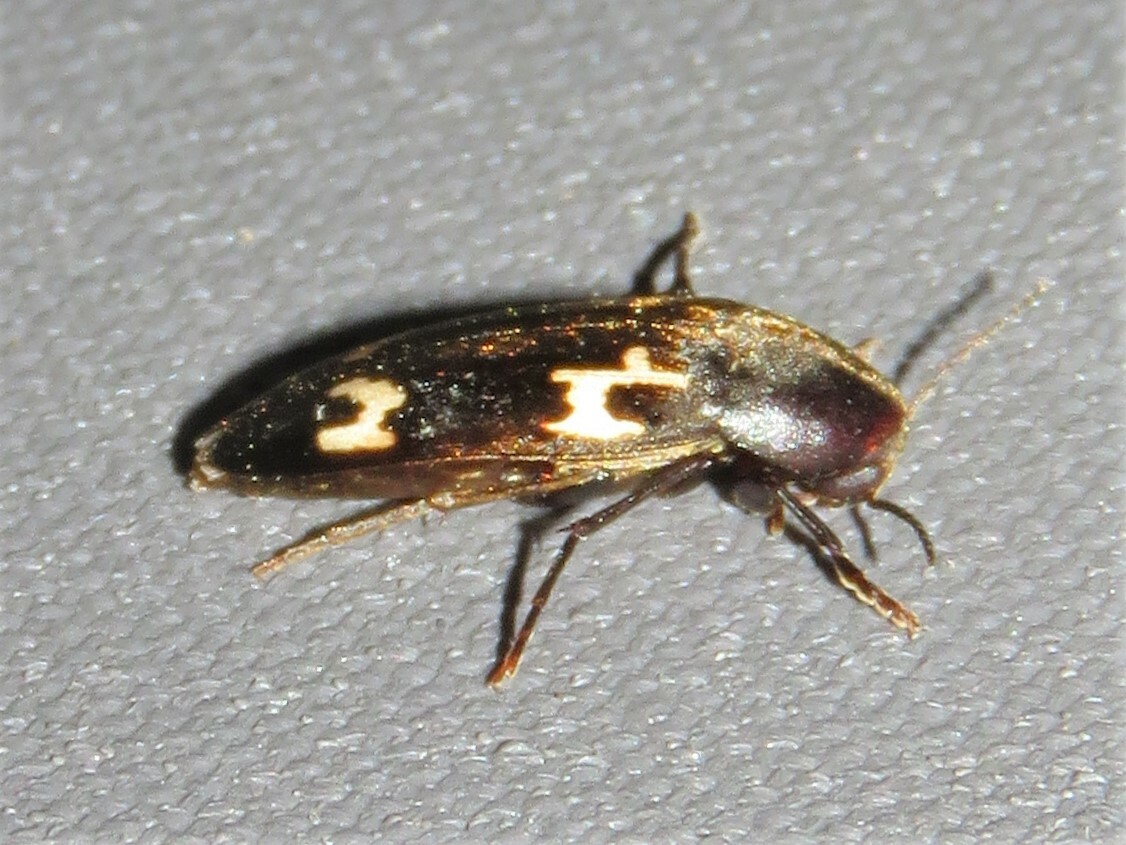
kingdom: Animalia
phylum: Arthropoda
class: Insecta
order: Coleoptera
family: Melandryidae
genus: Dircaea
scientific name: Dircaea liturata
